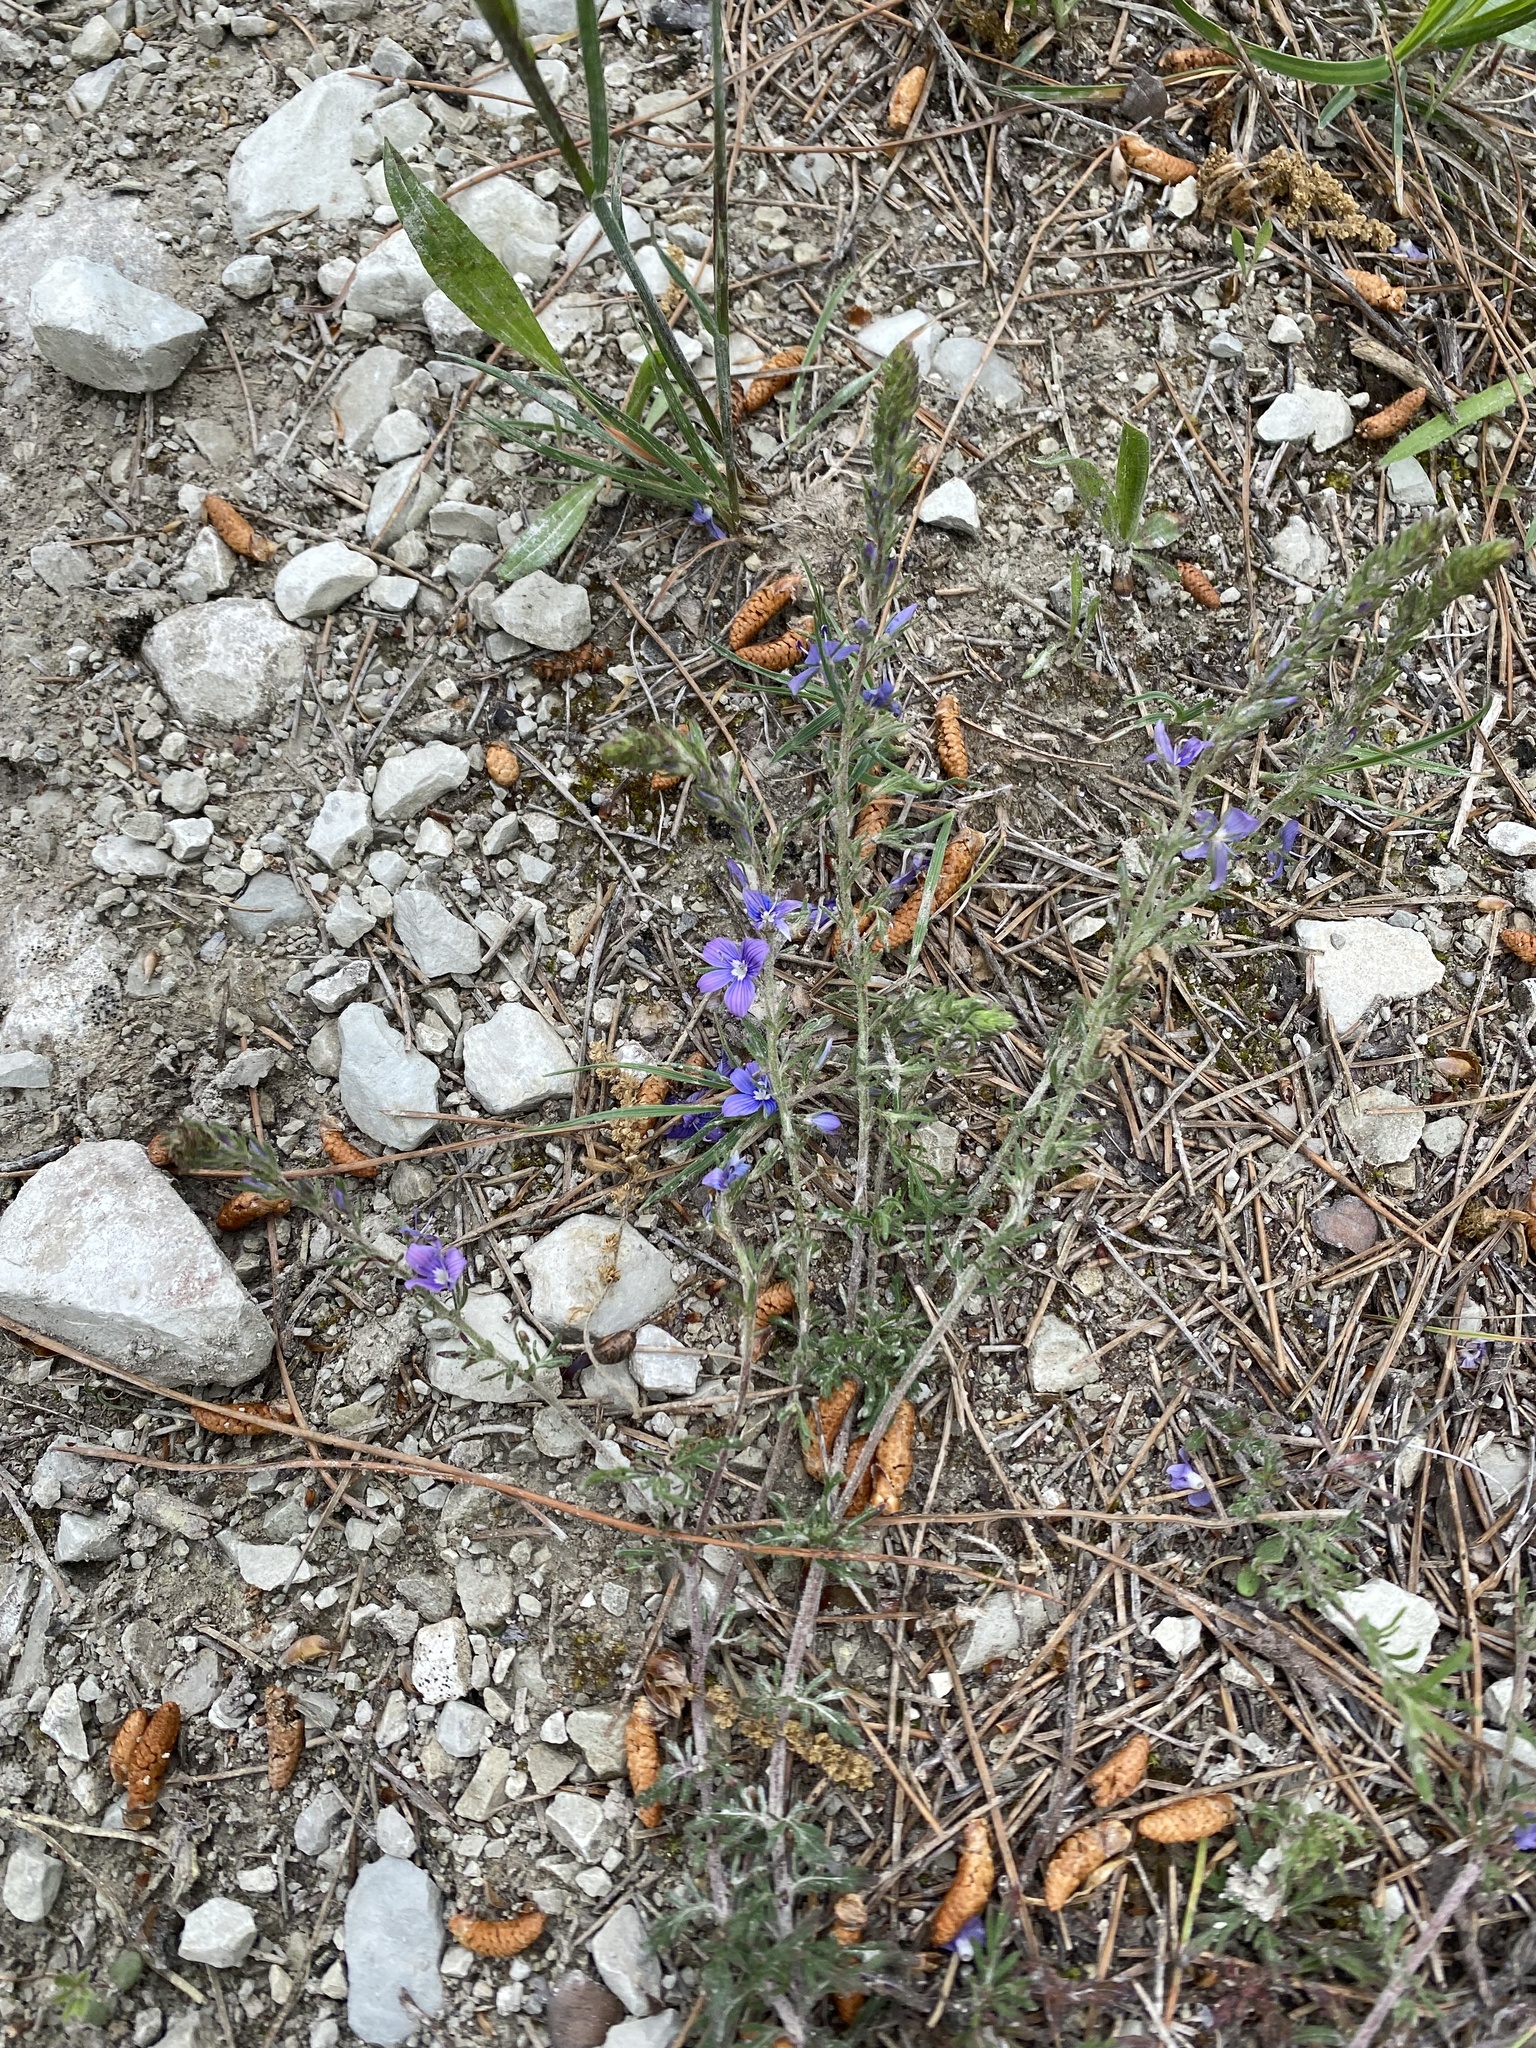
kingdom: Plantae
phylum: Tracheophyta
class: Magnoliopsida
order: Lamiales
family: Plantaginaceae
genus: Veronica
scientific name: Veronica capsellicarpa
